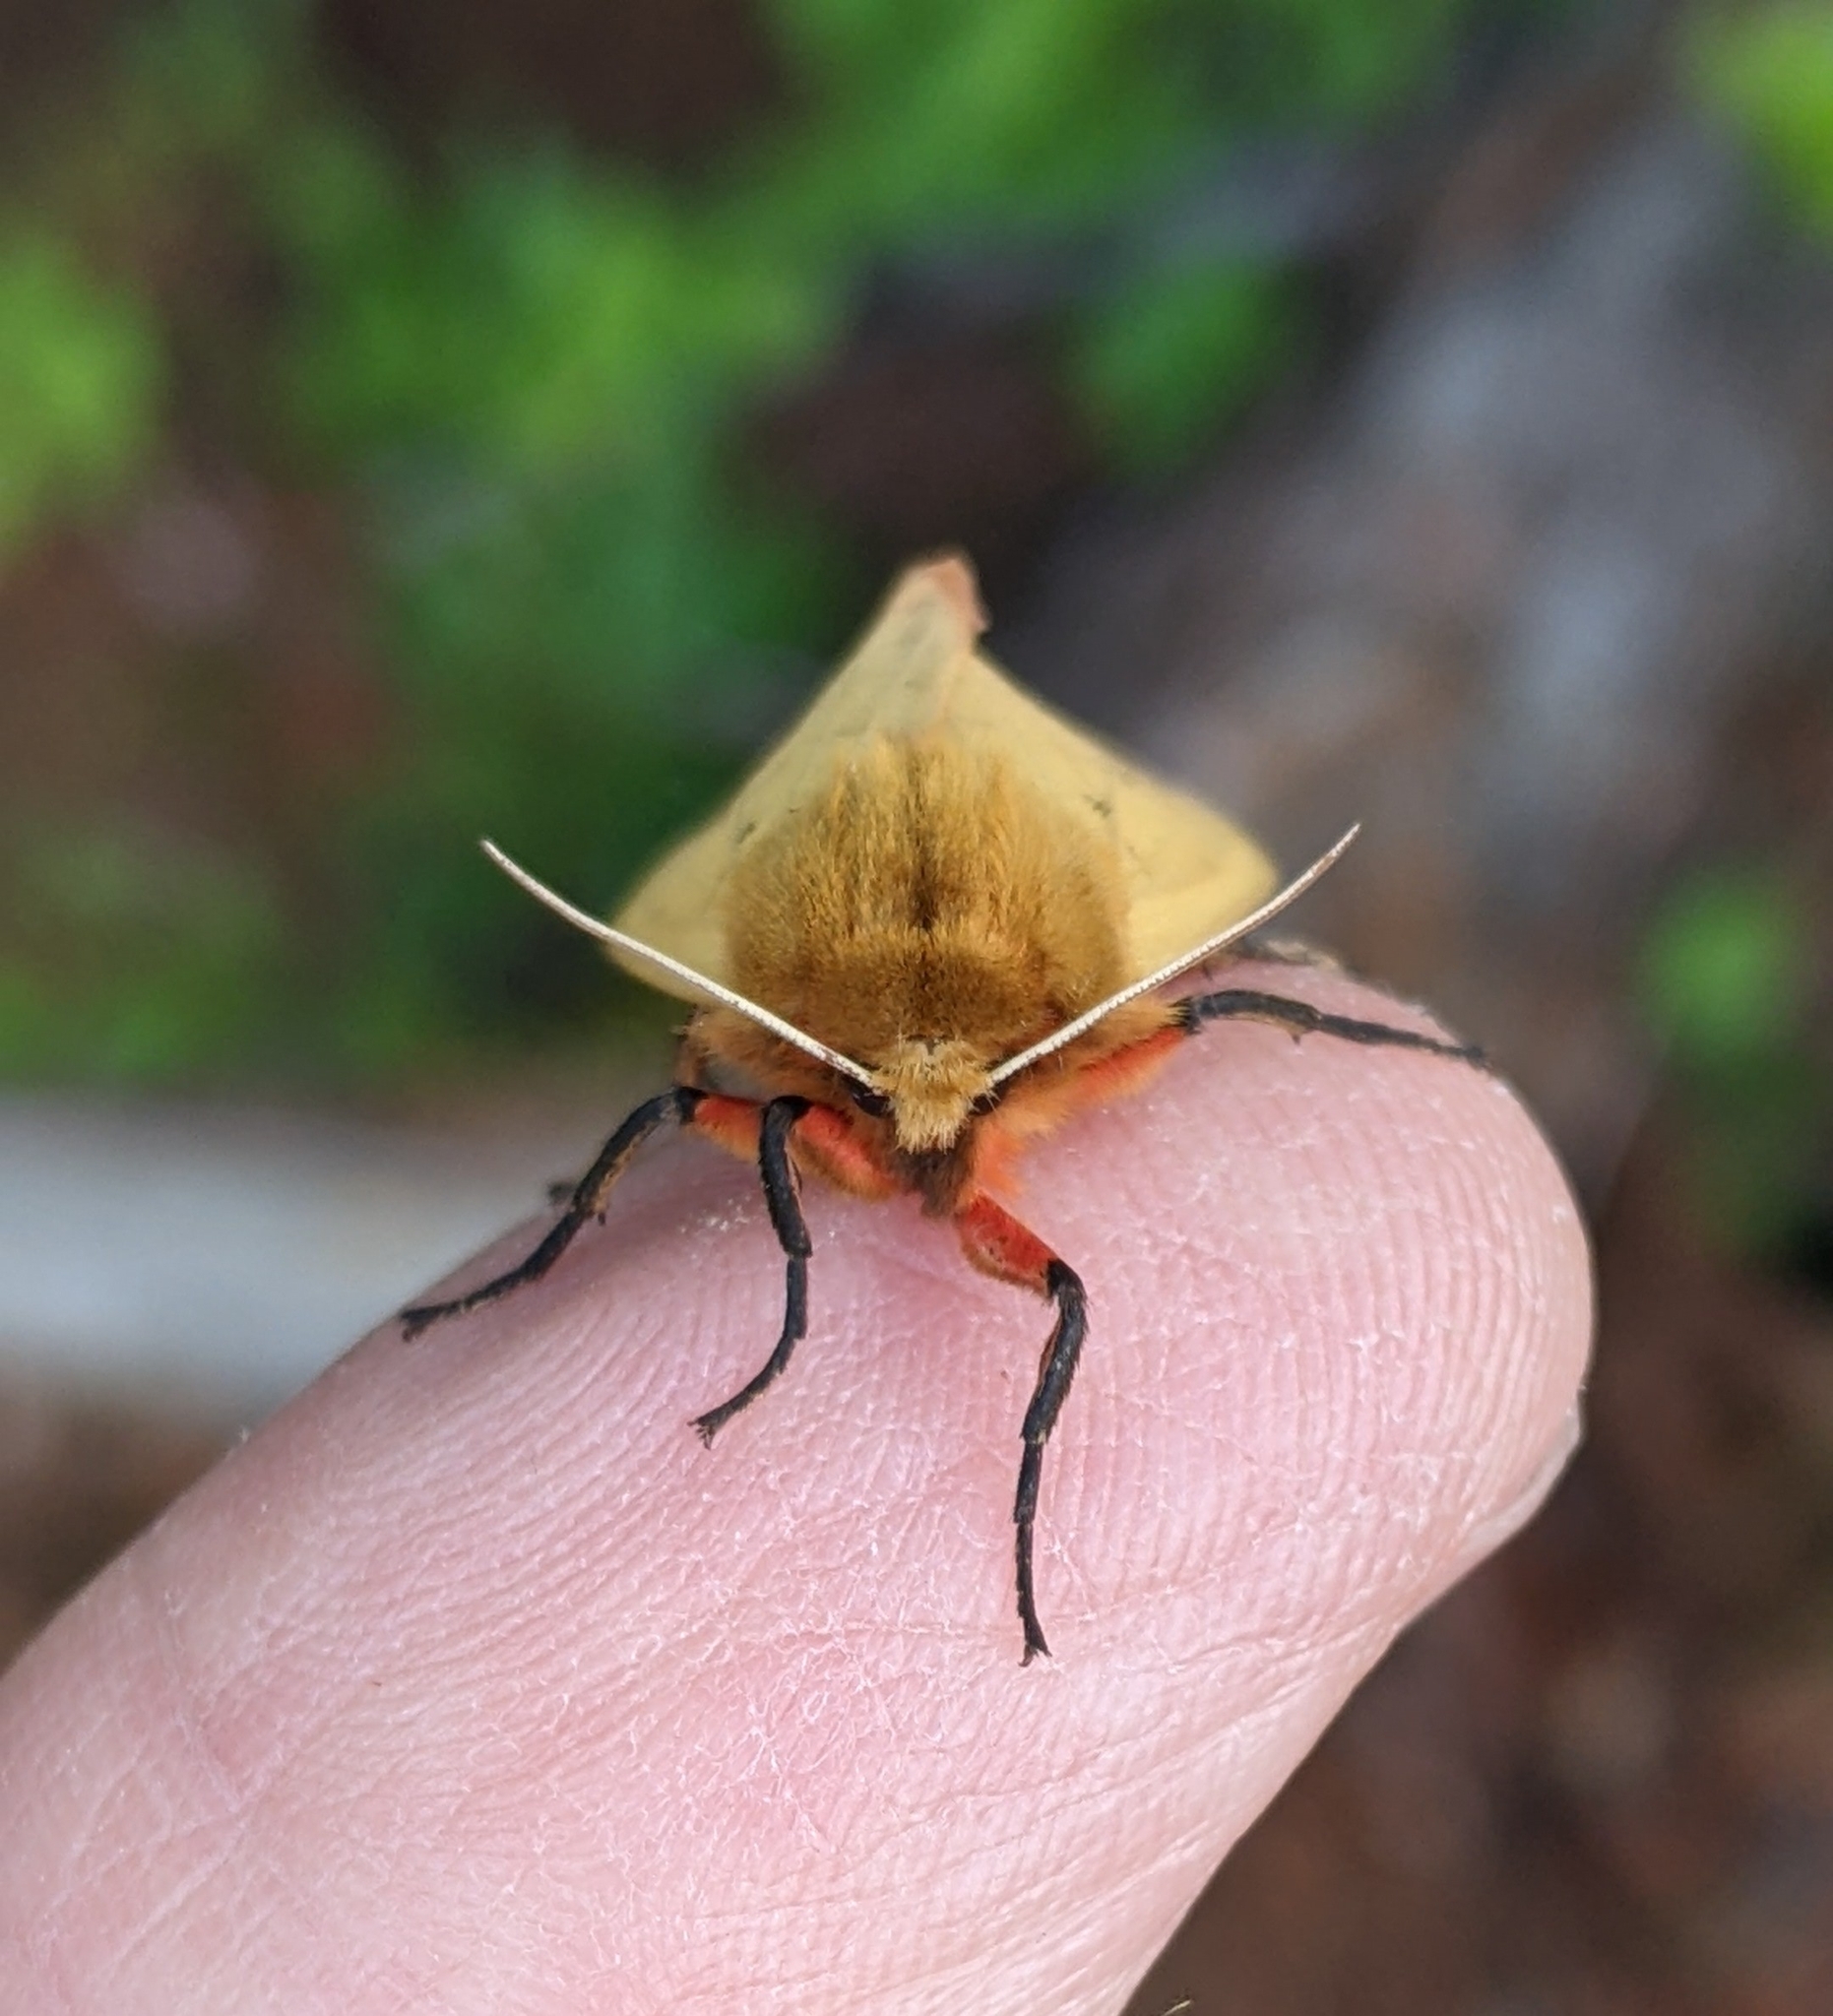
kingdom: Animalia
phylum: Arthropoda
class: Insecta
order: Lepidoptera
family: Erebidae
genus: Pyrrharctia
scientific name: Pyrrharctia isabella
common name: Isabella tiger moth
